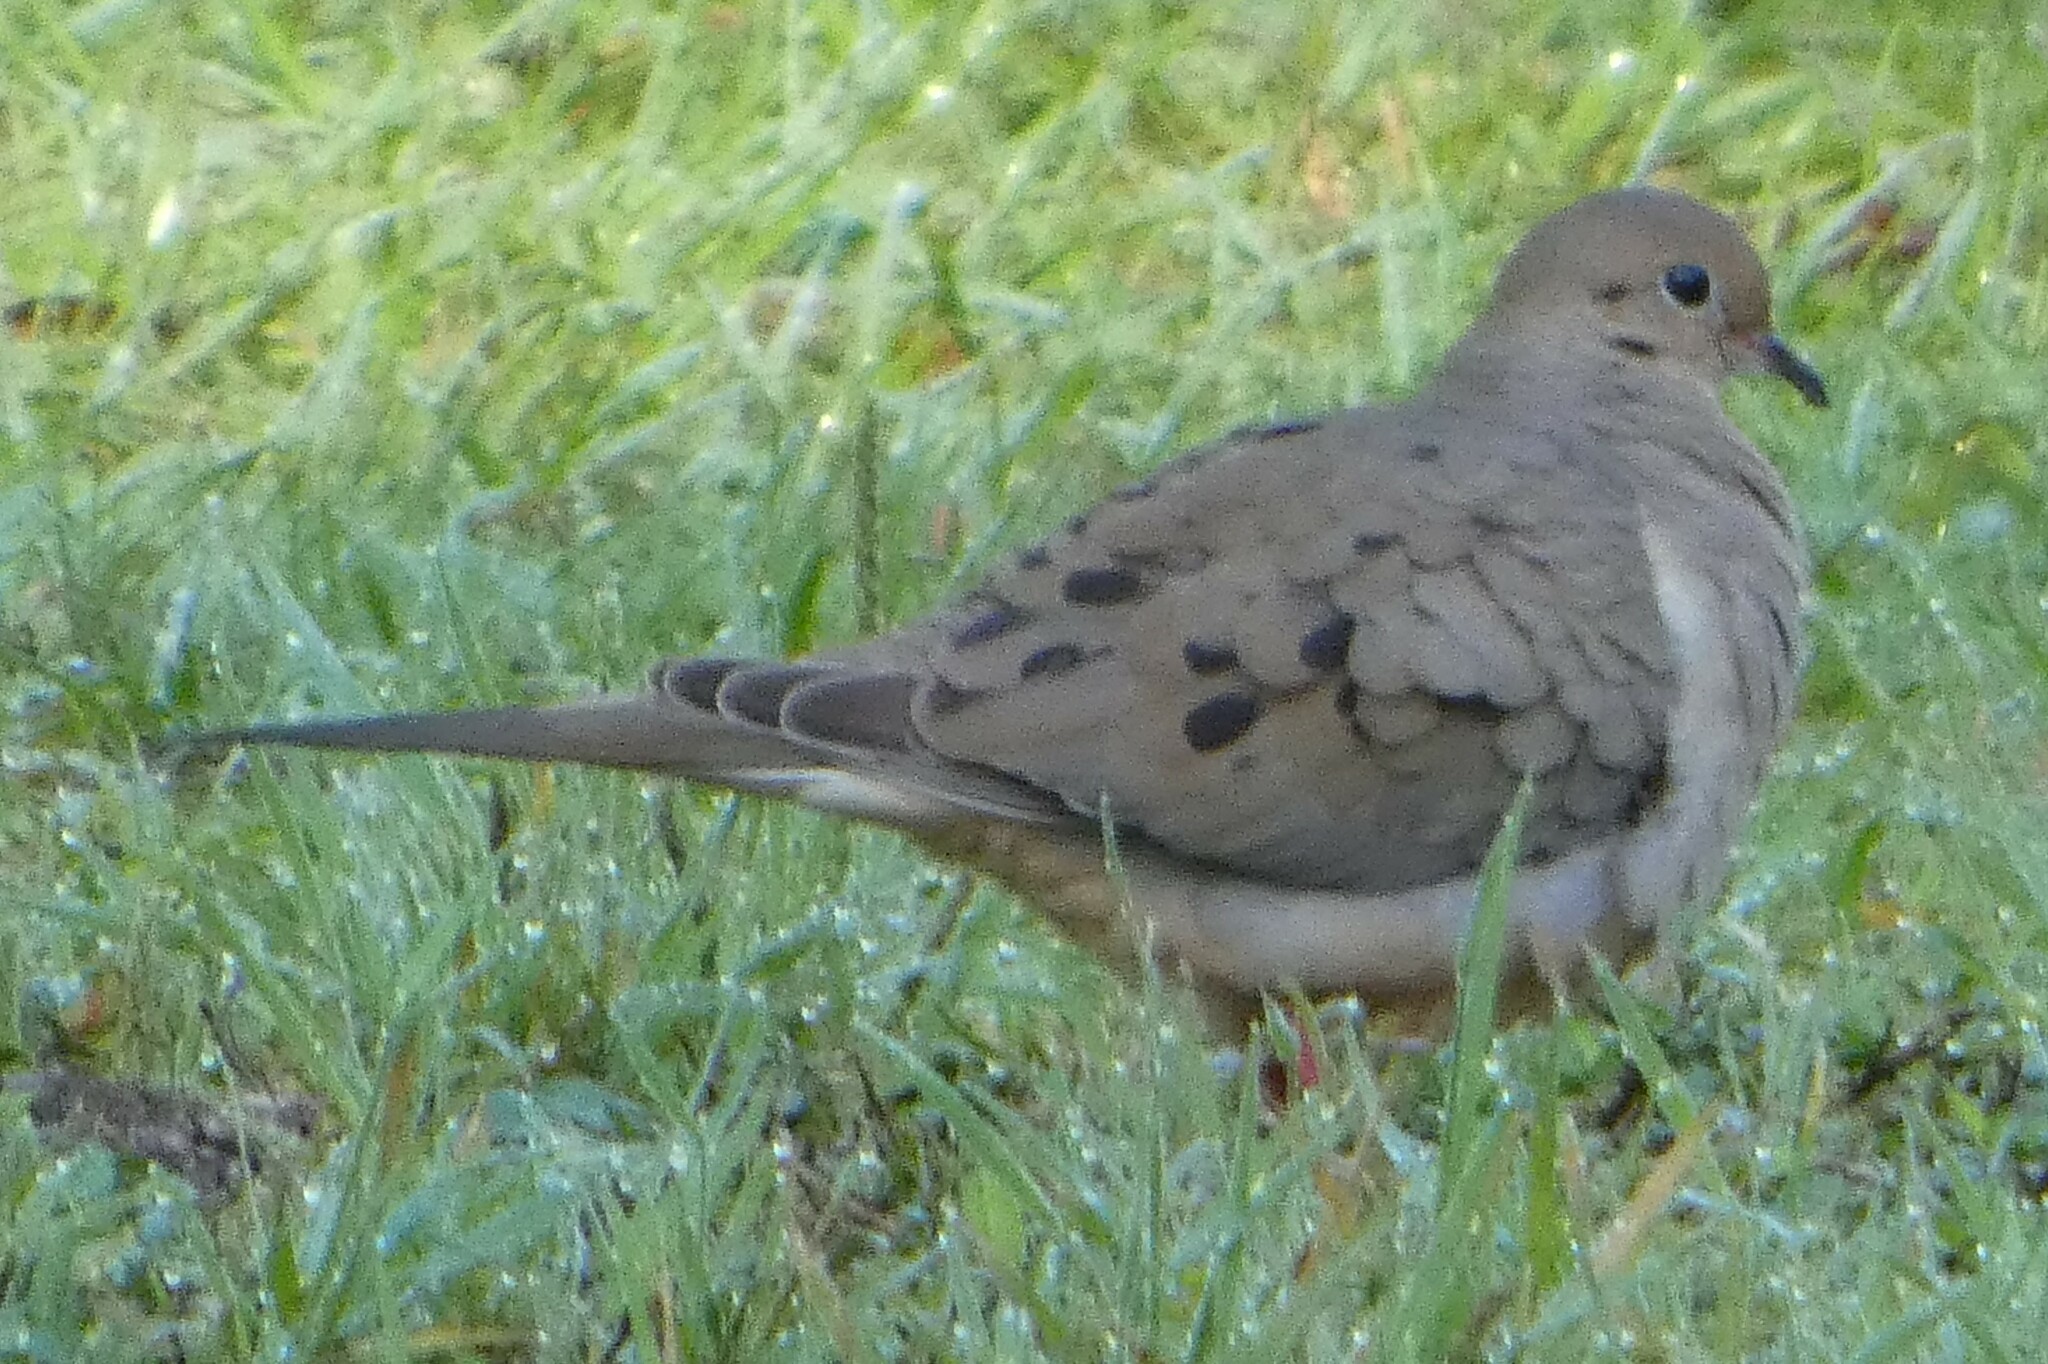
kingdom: Animalia
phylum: Chordata
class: Aves
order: Columbiformes
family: Columbidae
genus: Zenaida
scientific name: Zenaida macroura
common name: Mourning dove
